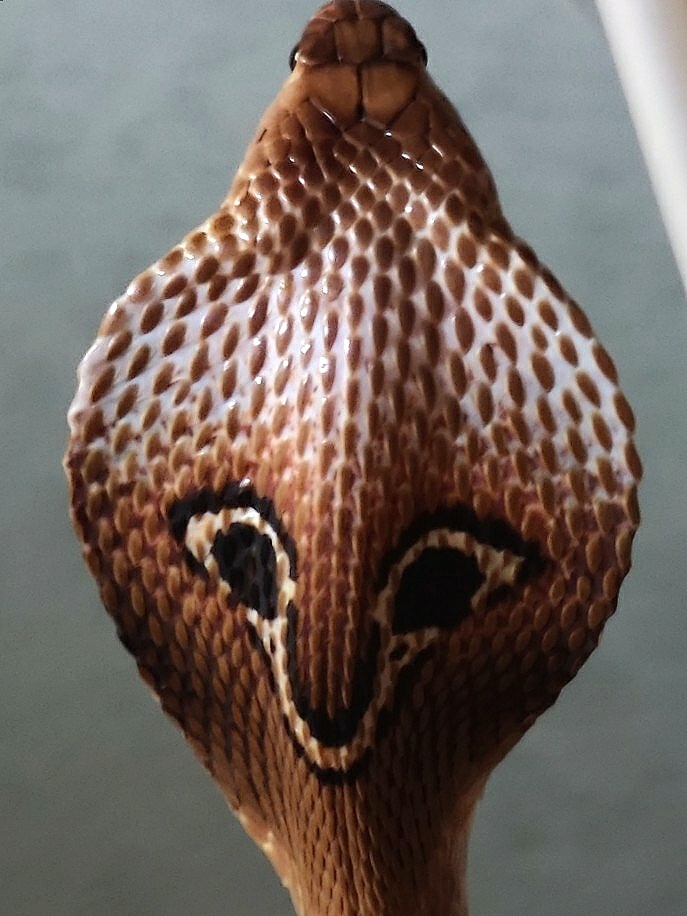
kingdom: Animalia
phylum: Chordata
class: Squamata
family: Elapidae
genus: Naja
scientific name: Naja naja
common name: Indian cobra
